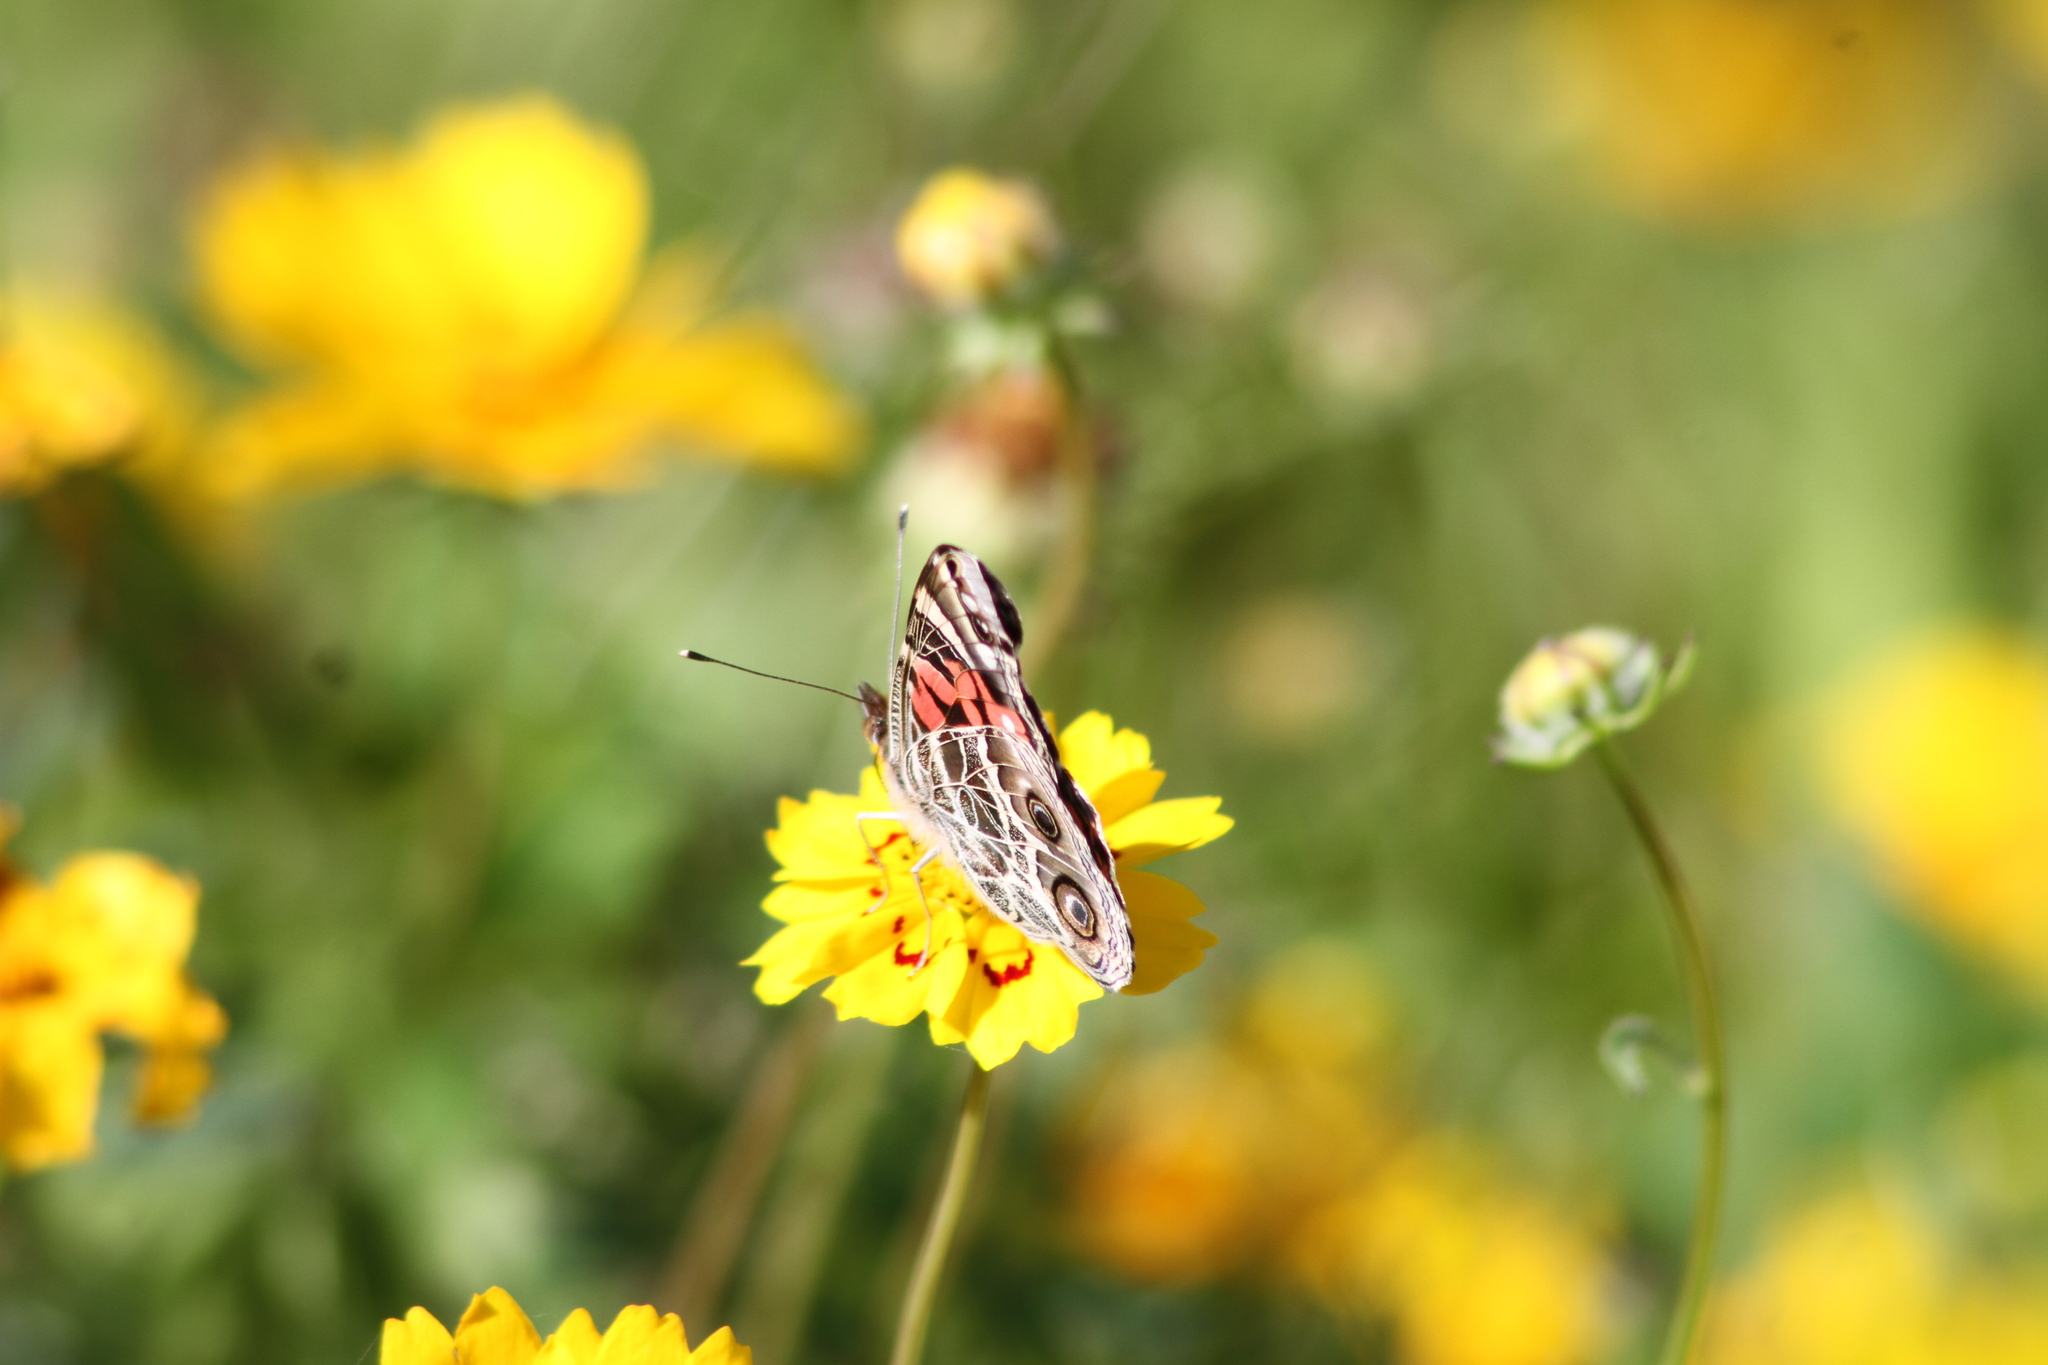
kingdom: Animalia
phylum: Arthropoda
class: Insecta
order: Lepidoptera
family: Nymphalidae
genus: Vanessa
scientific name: Vanessa virginiensis
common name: American lady
